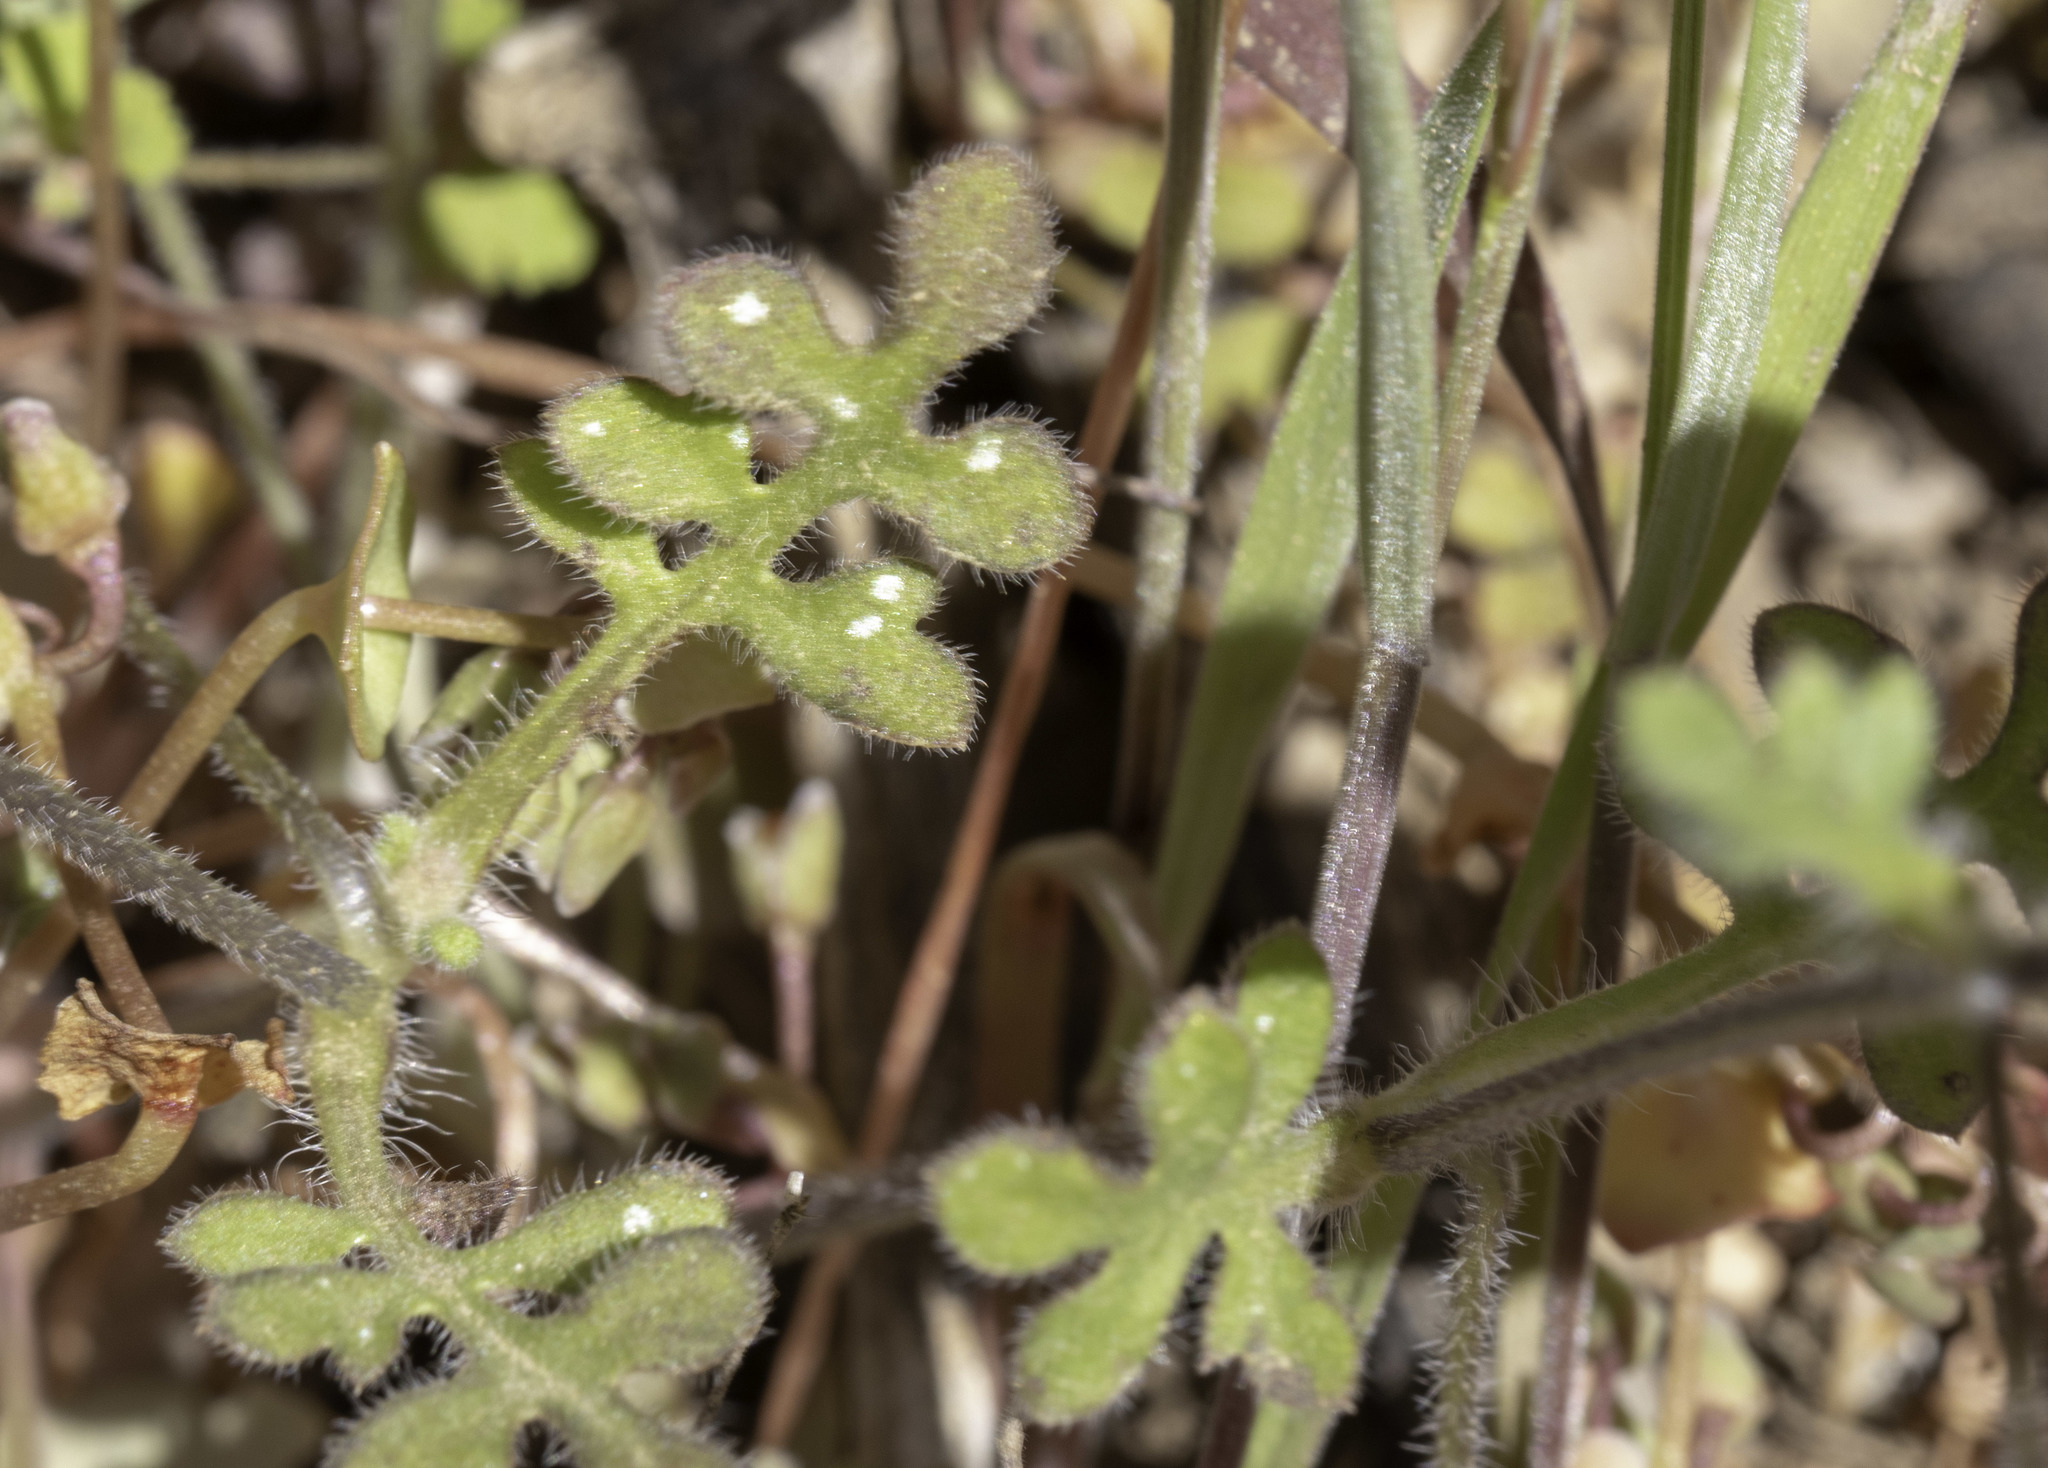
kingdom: Plantae
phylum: Tracheophyta
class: Magnoliopsida
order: Boraginales
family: Hydrophyllaceae
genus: Nemophila
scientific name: Nemophila menziesii
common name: Baby's-blue-eyes
